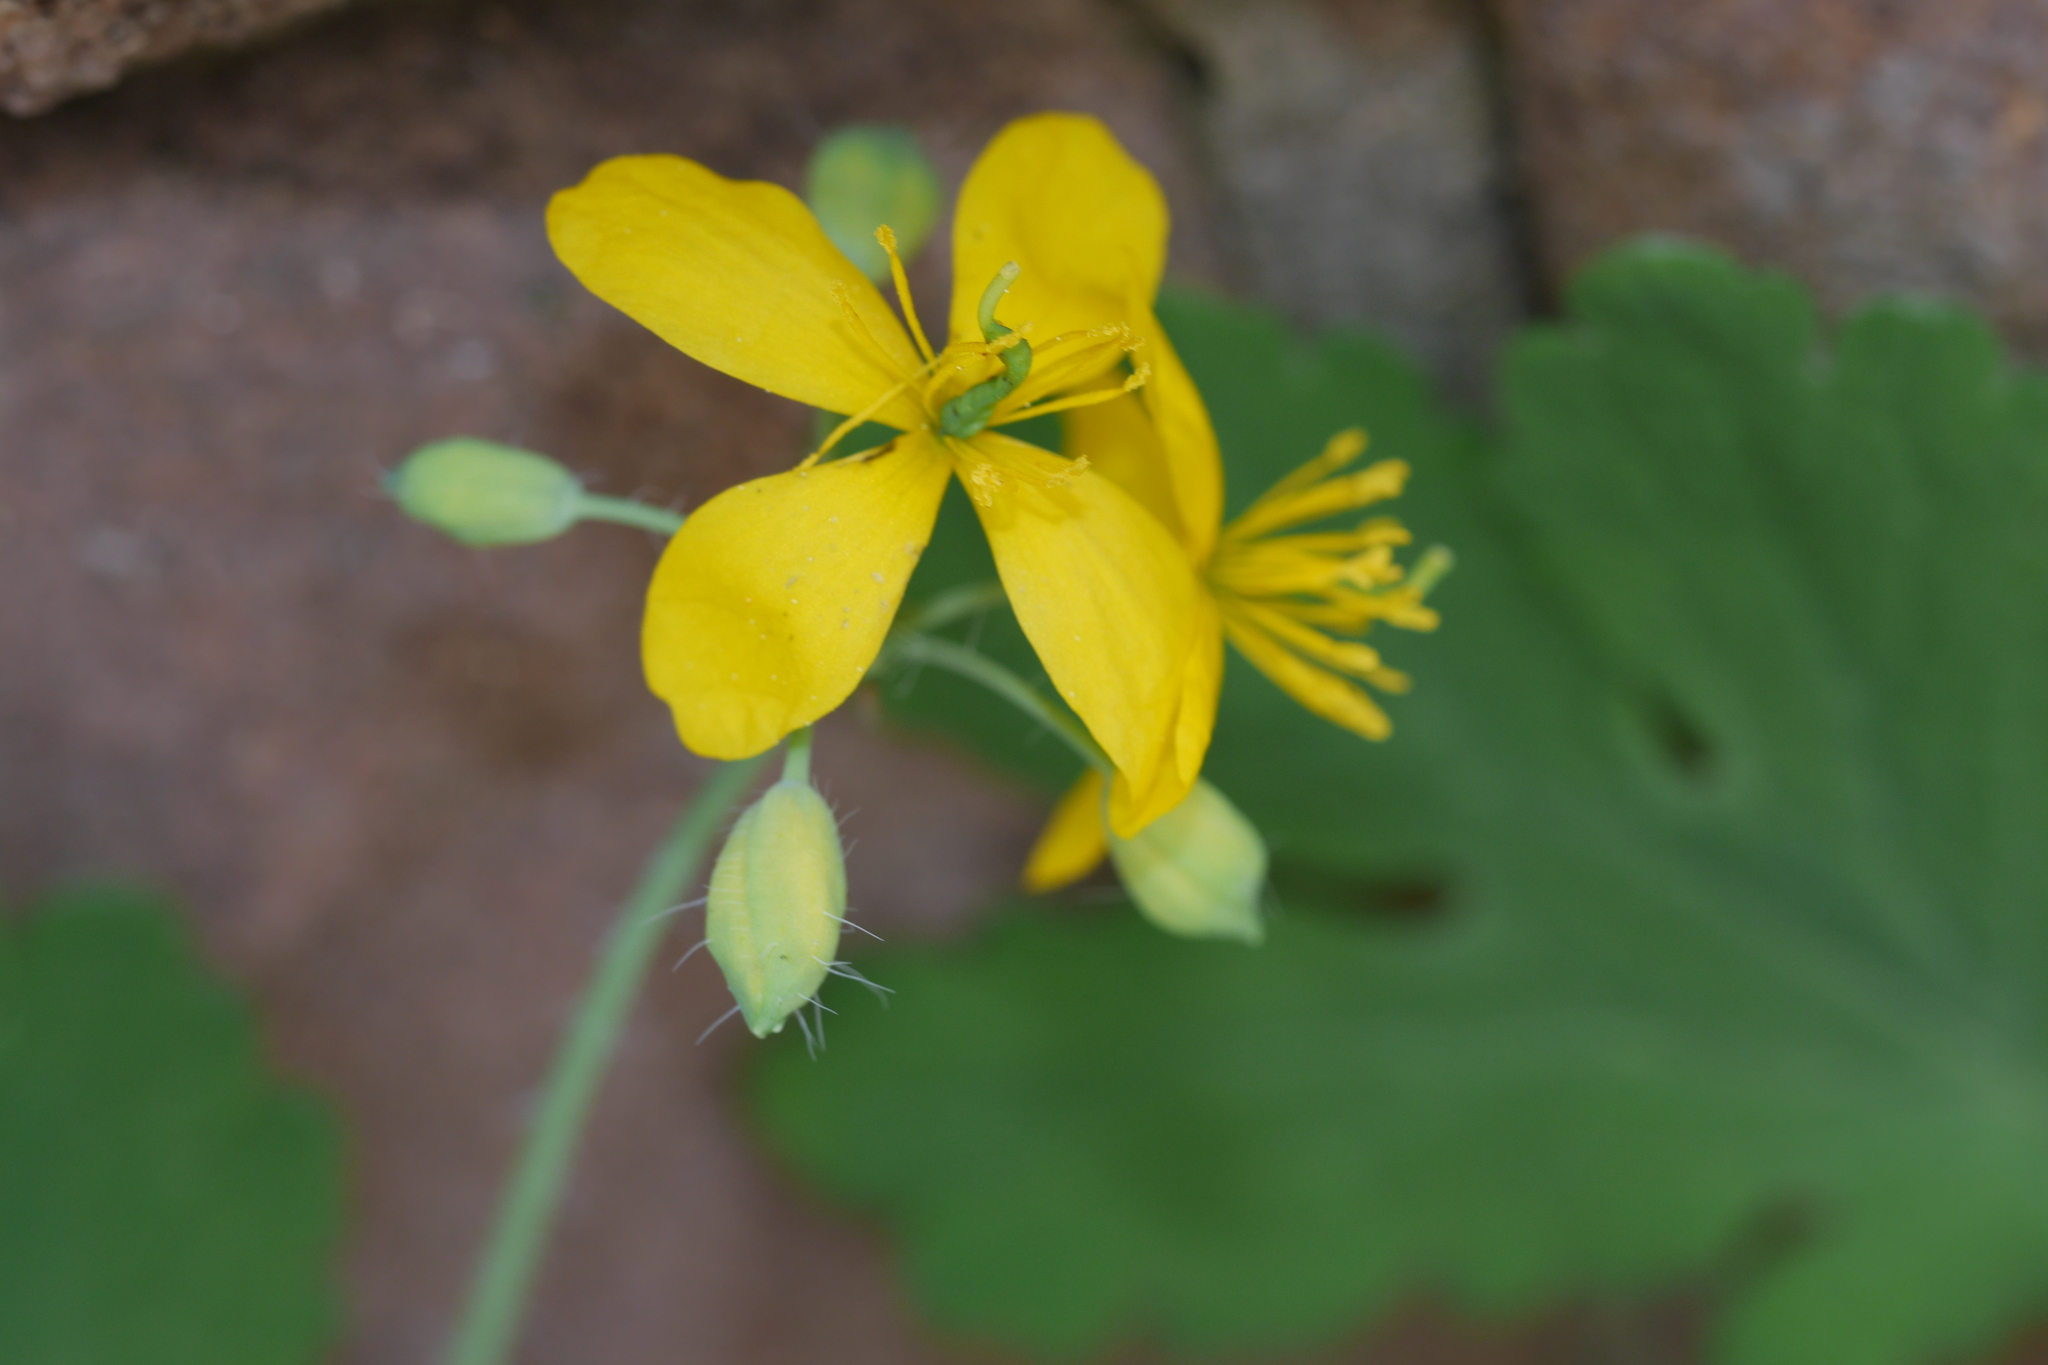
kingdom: Plantae
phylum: Tracheophyta
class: Magnoliopsida
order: Ranunculales
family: Papaveraceae
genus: Chelidonium
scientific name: Chelidonium majus
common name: Greater celandine
